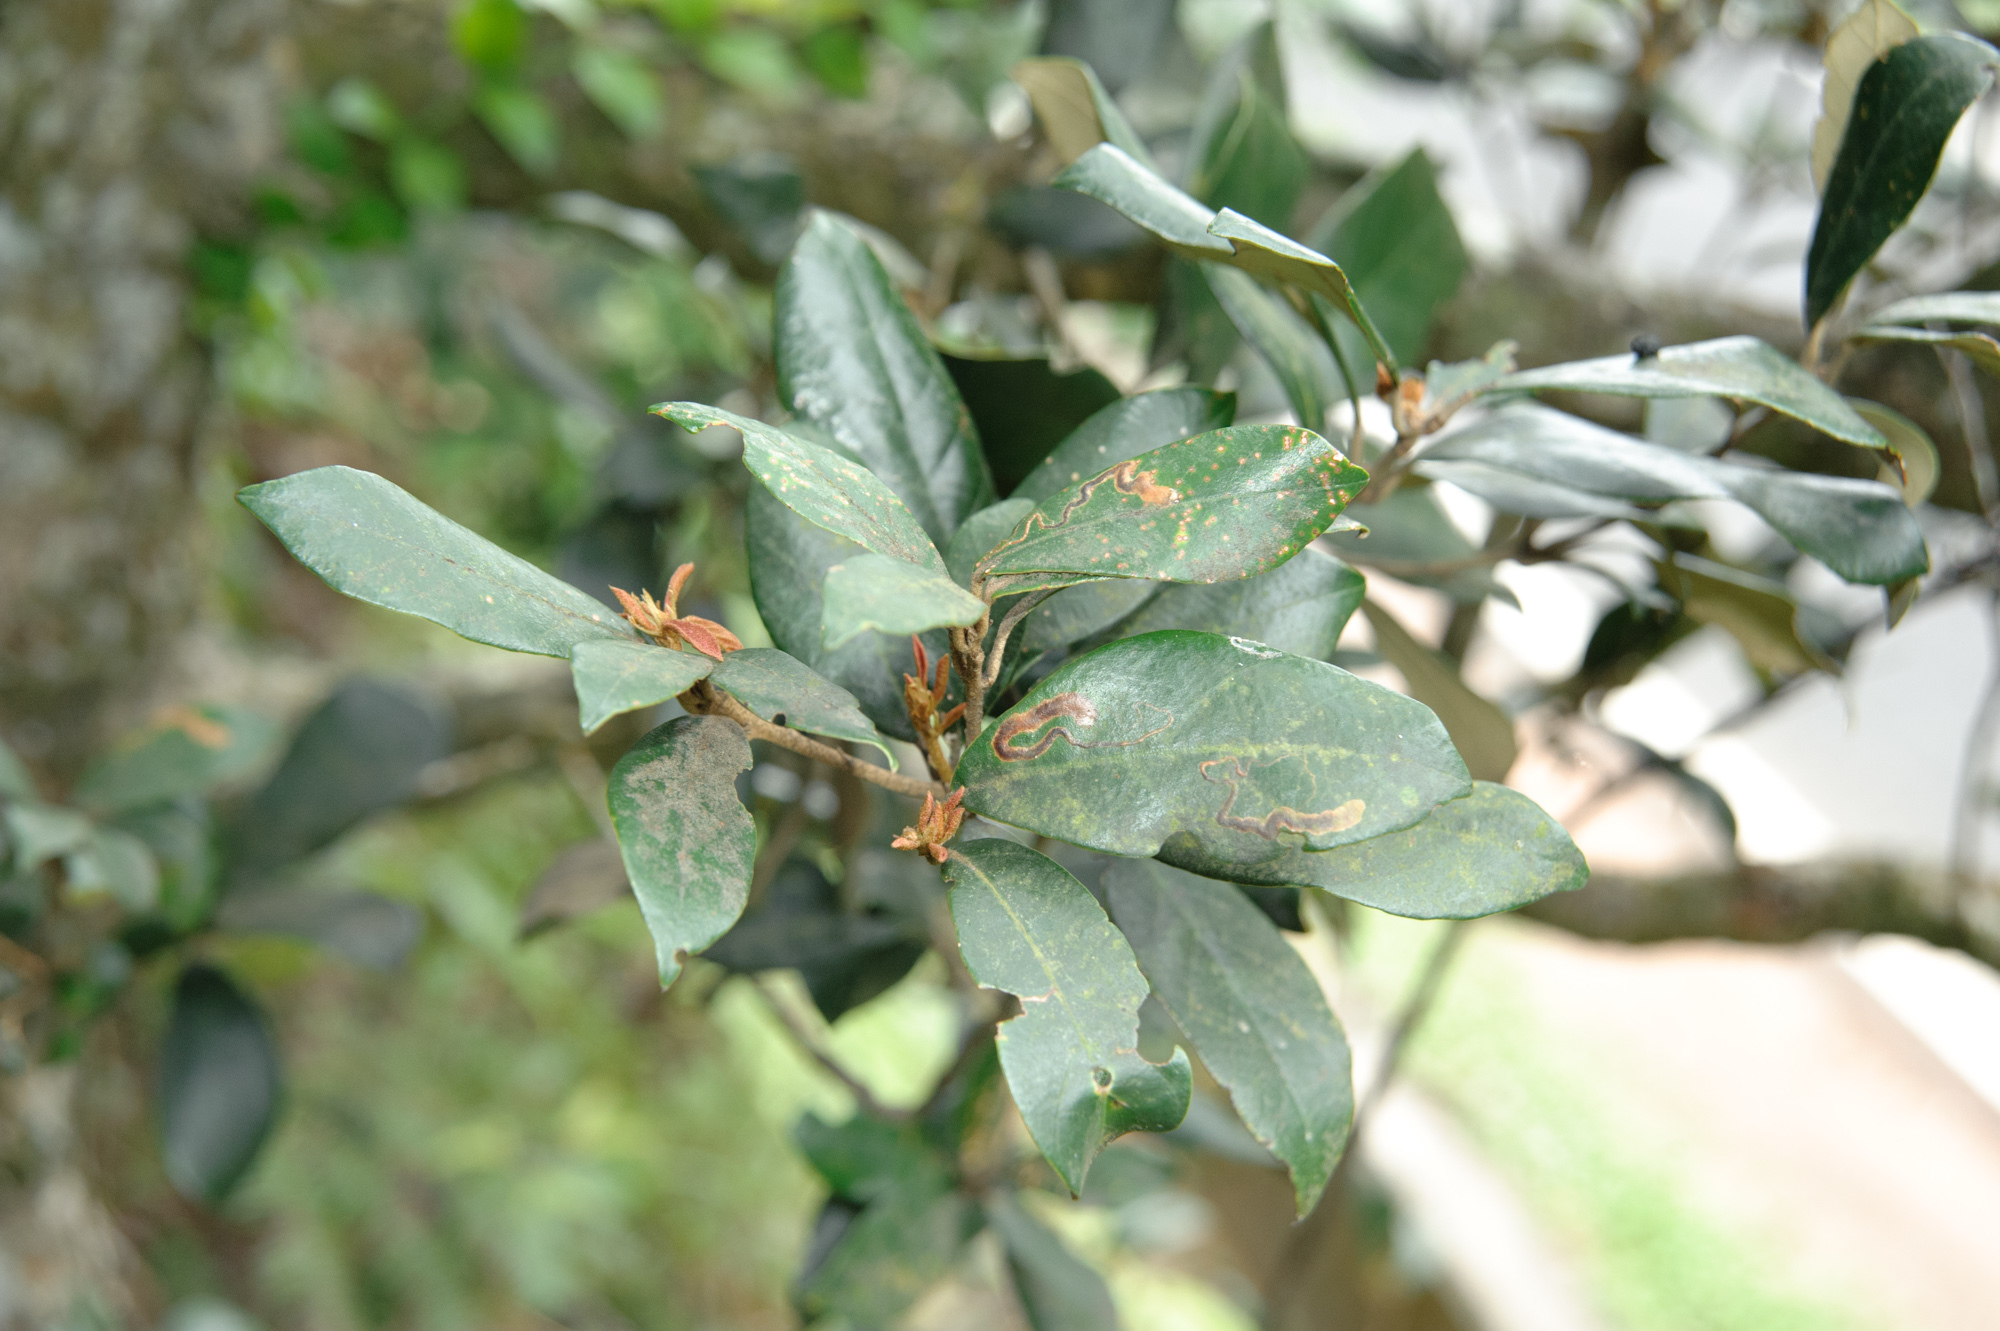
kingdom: Plantae
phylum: Tracheophyta
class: Magnoliopsida
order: Fagales
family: Fagaceae
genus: Quercus
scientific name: Quercus championii
